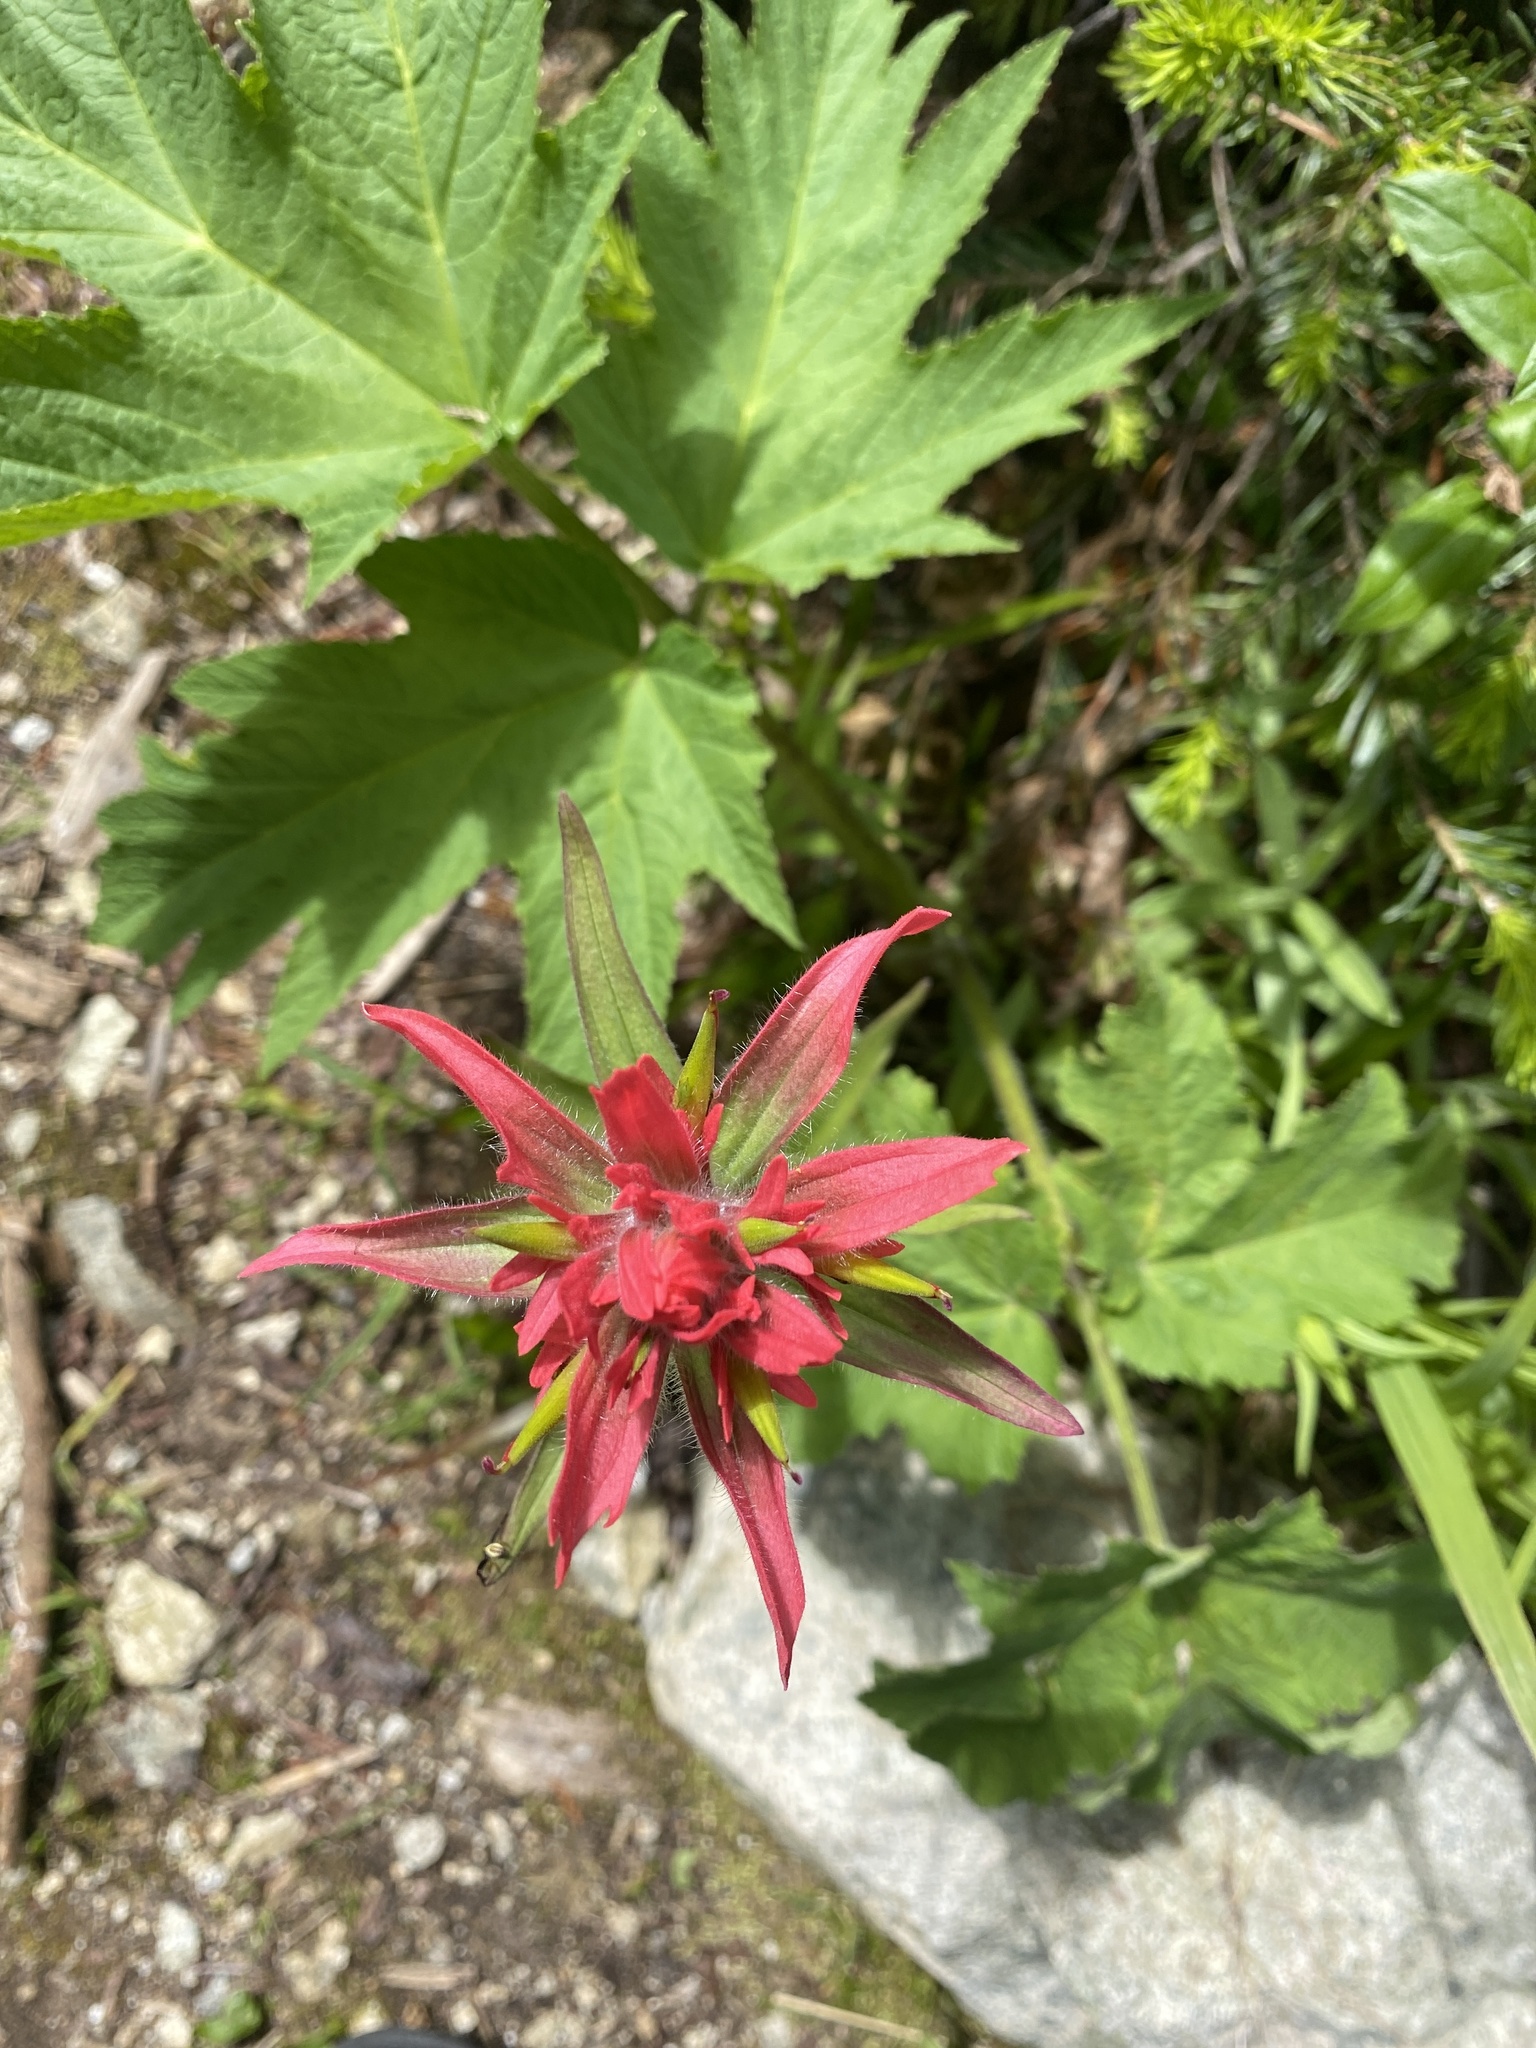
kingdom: Plantae
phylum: Tracheophyta
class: Magnoliopsida
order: Lamiales
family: Orobanchaceae
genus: Castilleja
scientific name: Castilleja miniata
